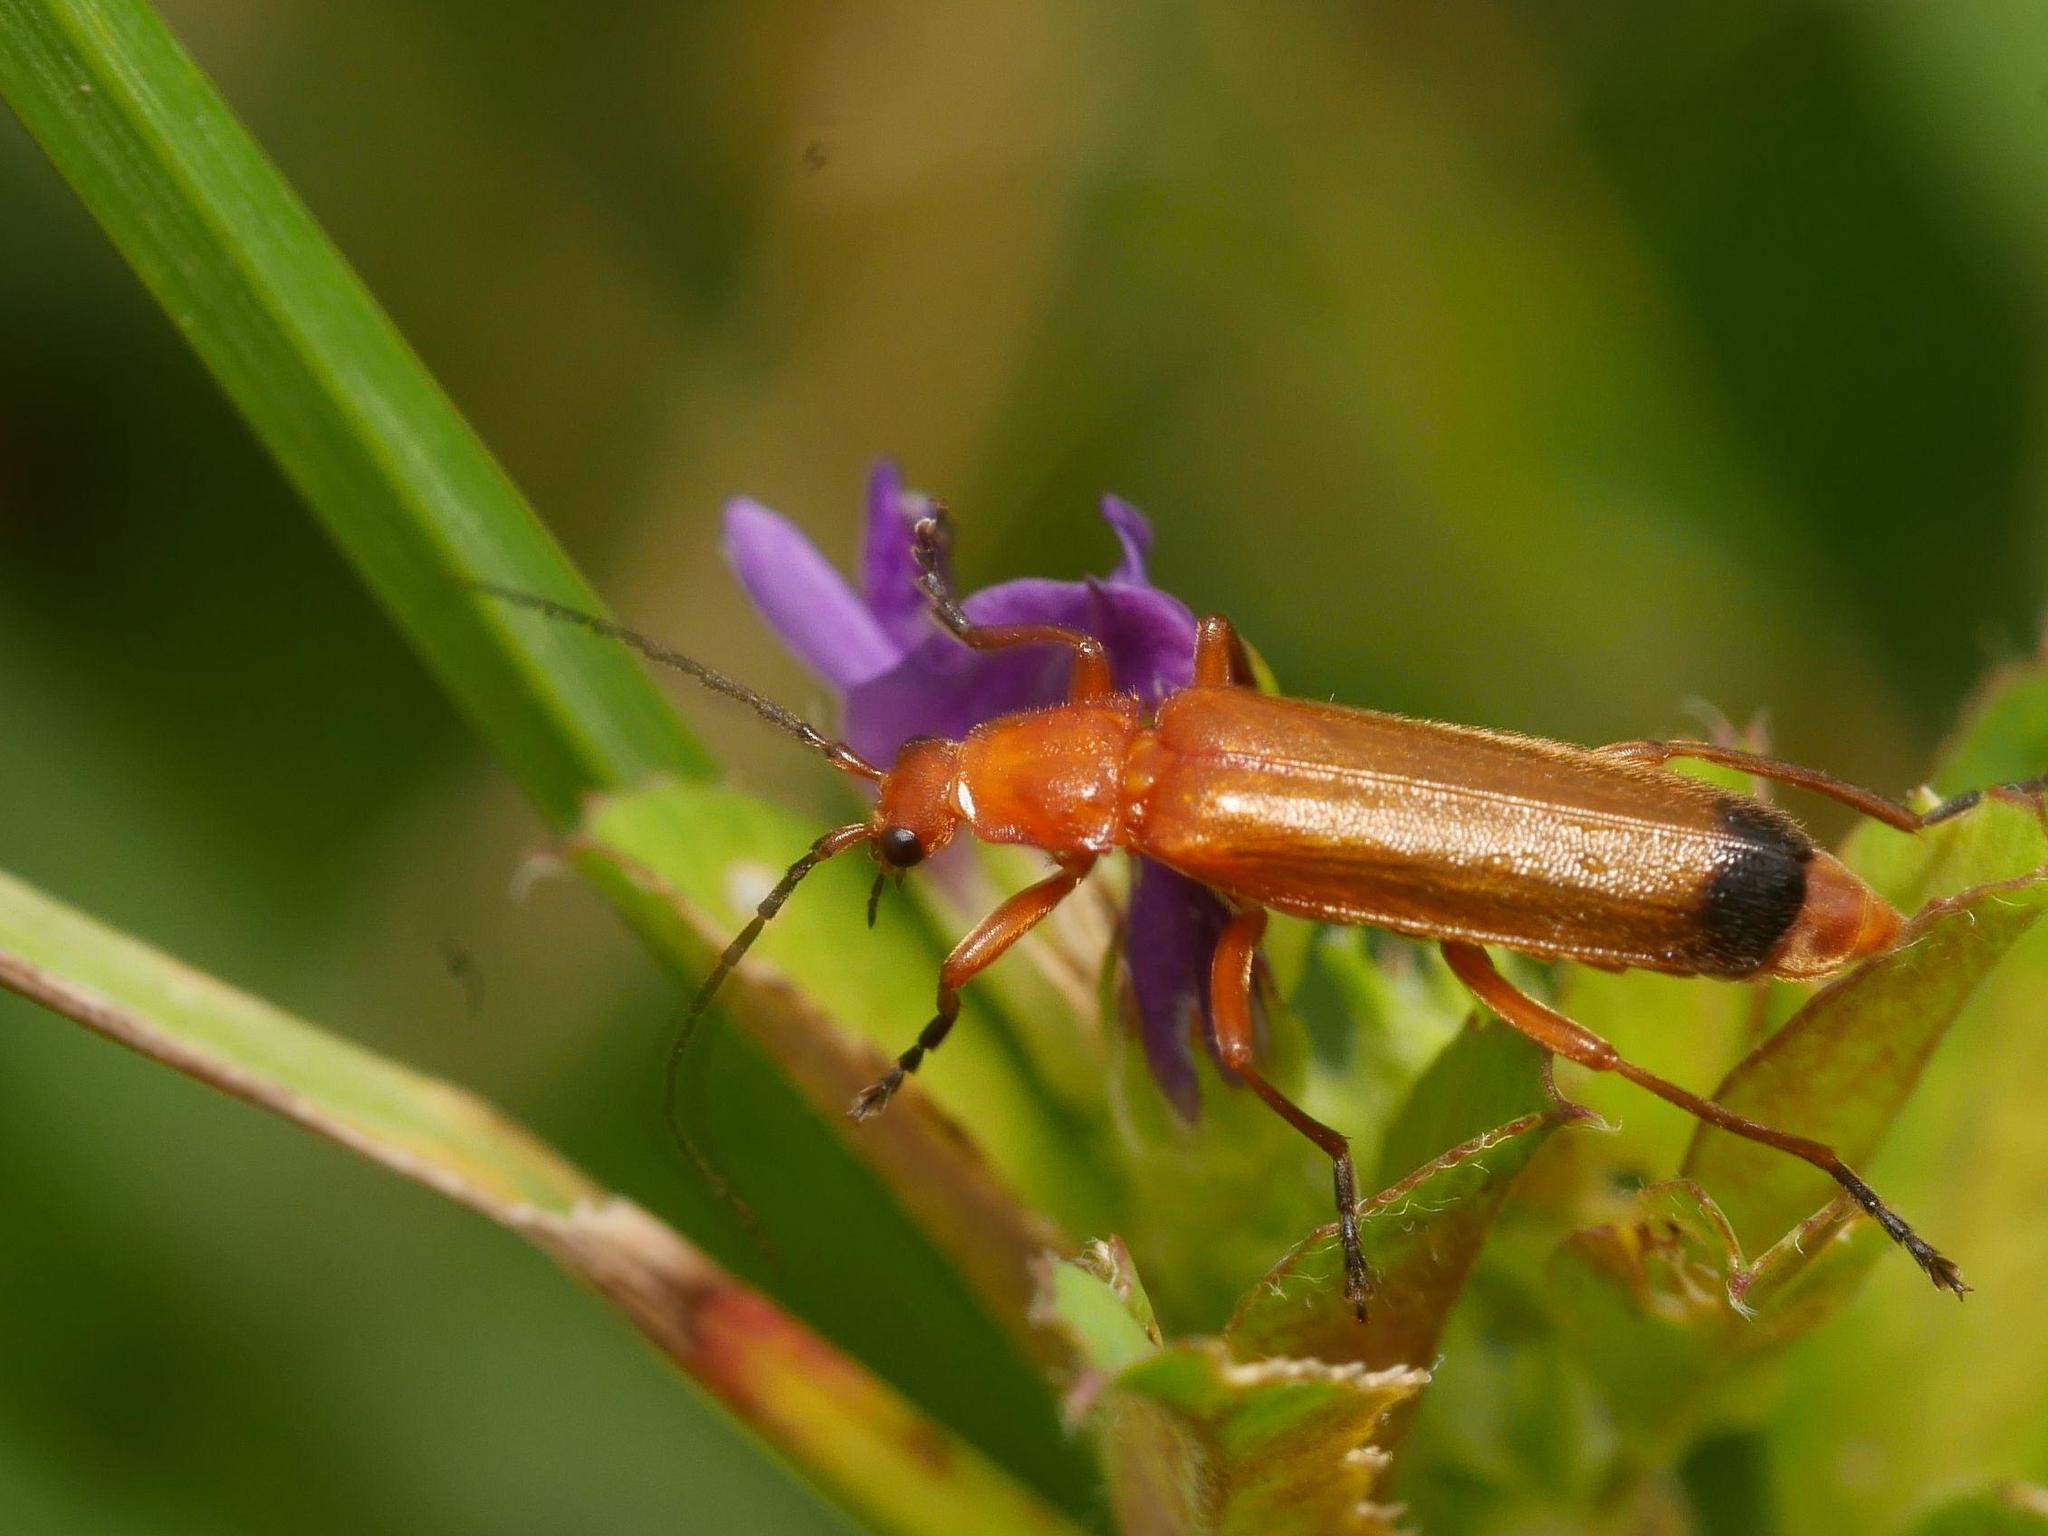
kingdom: Animalia
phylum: Arthropoda
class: Insecta
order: Coleoptera
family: Cantharidae
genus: Rhagonycha
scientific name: Rhagonycha fulva
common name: Common red soldier beetle
